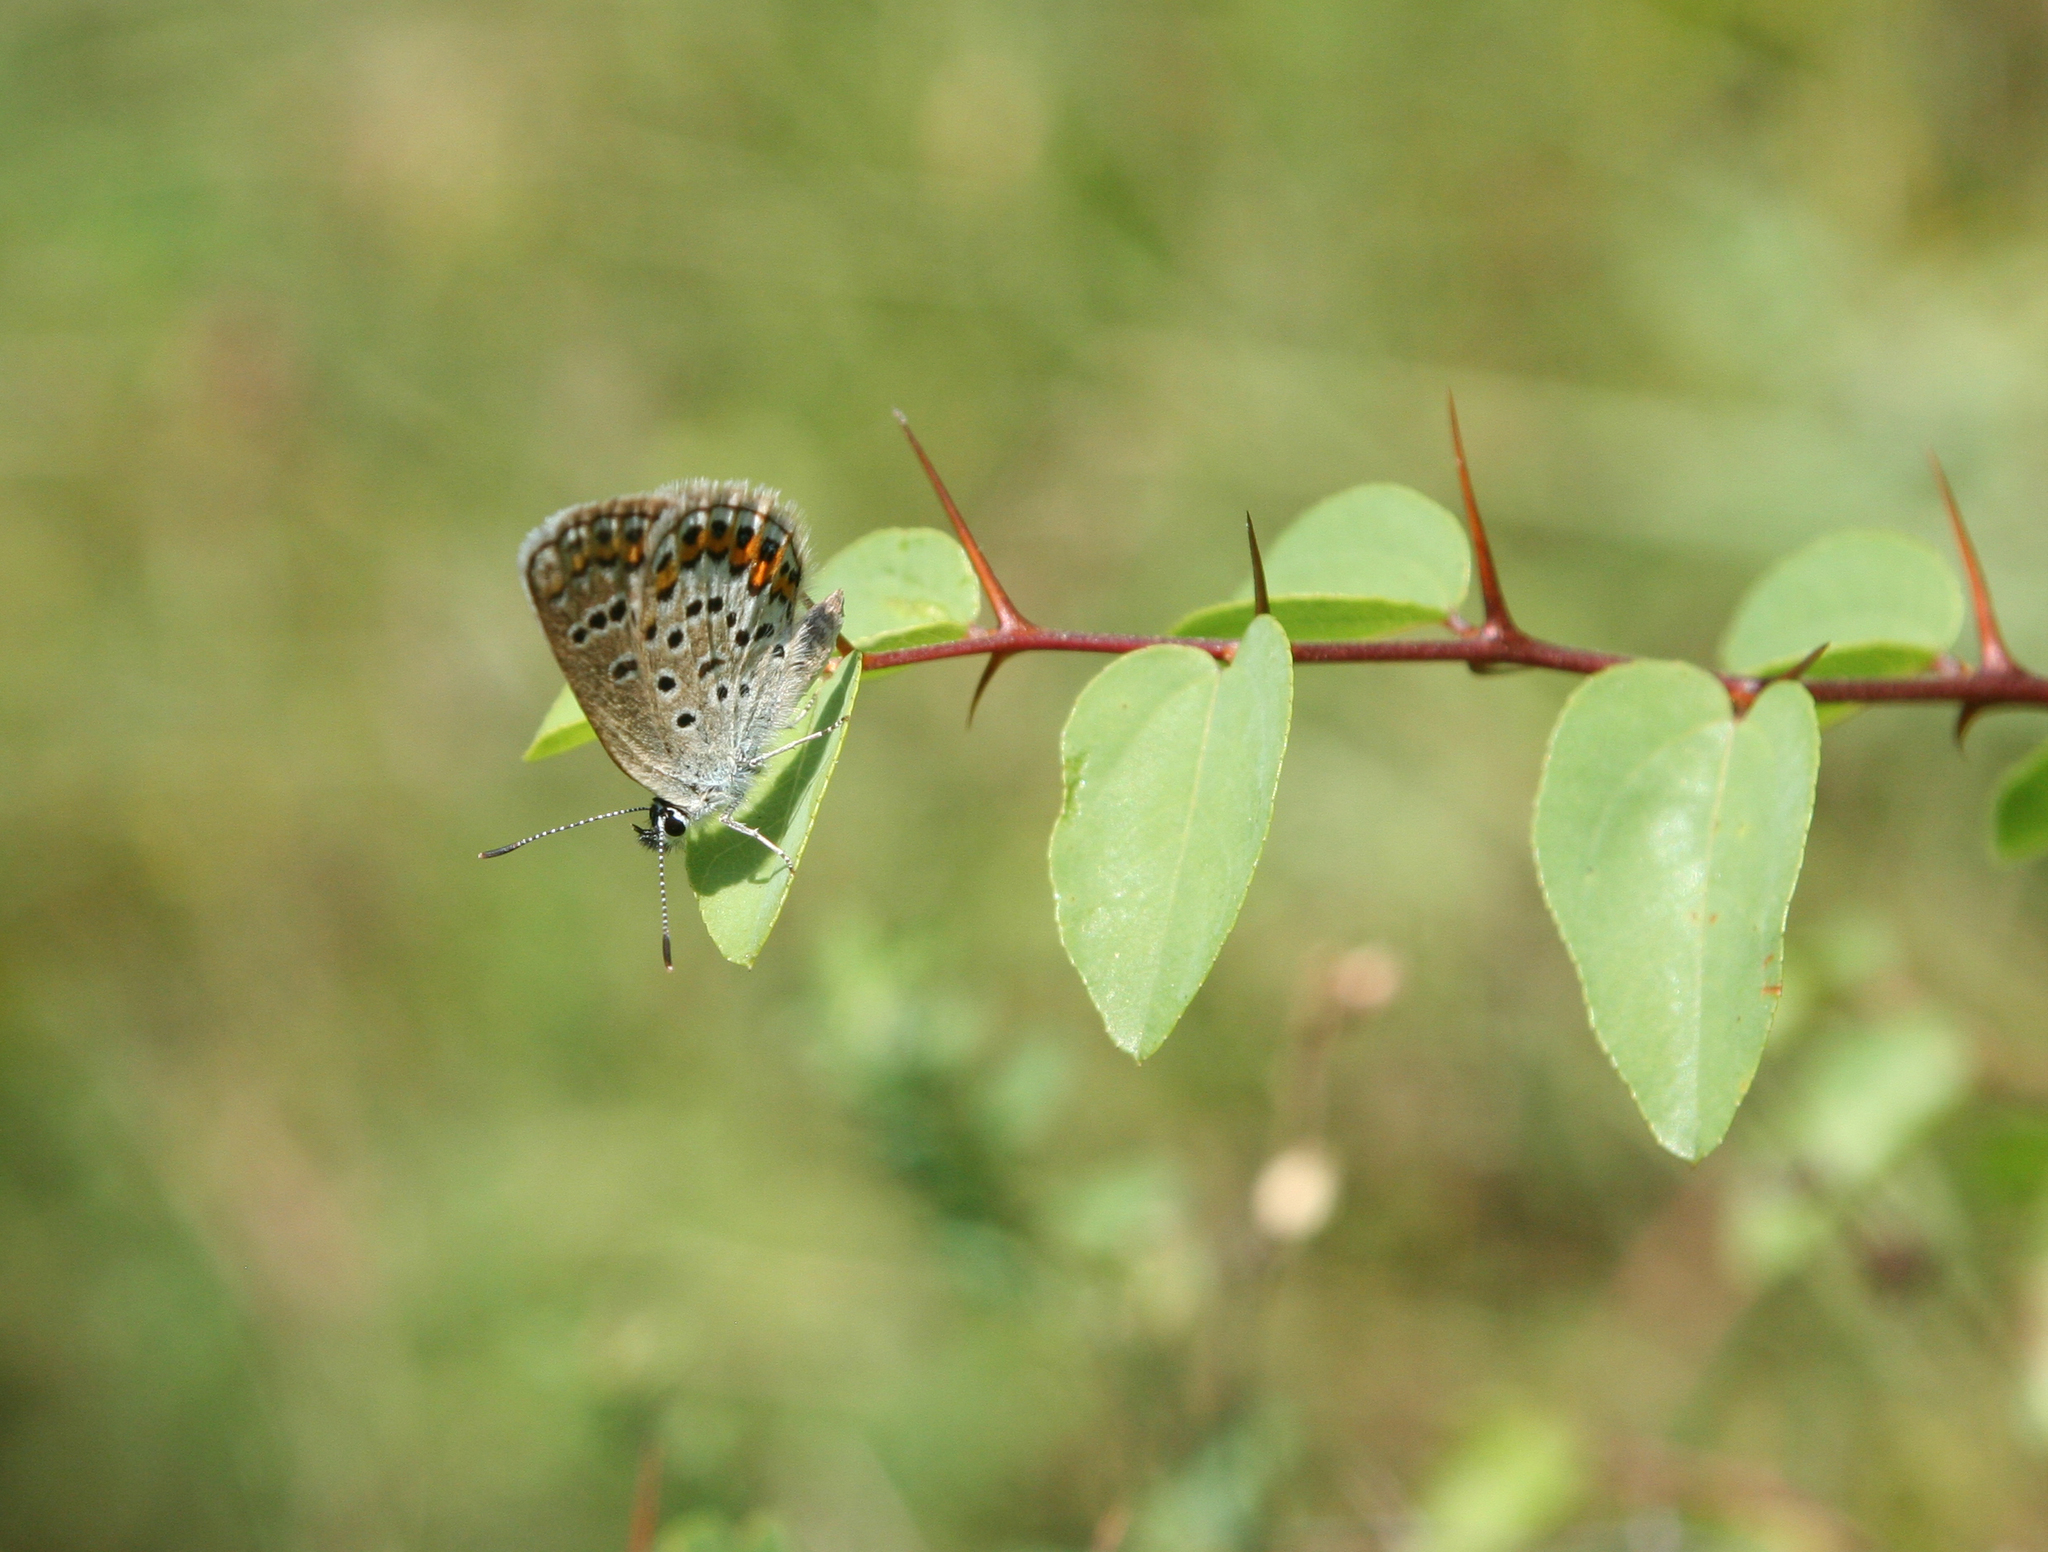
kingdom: Animalia
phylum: Arthropoda
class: Insecta
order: Lepidoptera
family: Lycaenidae
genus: Plebejus
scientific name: Plebejus argus
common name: Silver-studded blue
